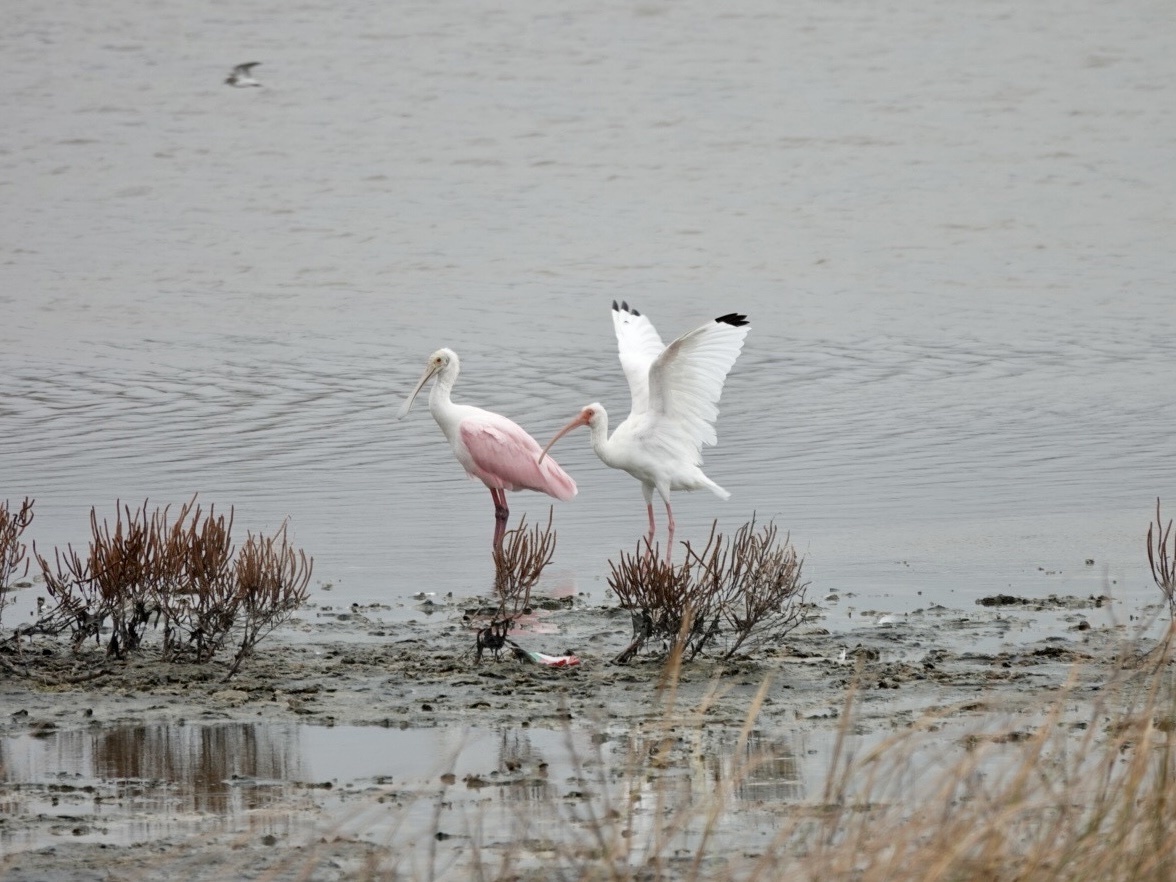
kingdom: Animalia
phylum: Chordata
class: Aves
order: Pelecaniformes
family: Threskiornithidae
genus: Eudocimus
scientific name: Eudocimus albus
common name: White ibis
